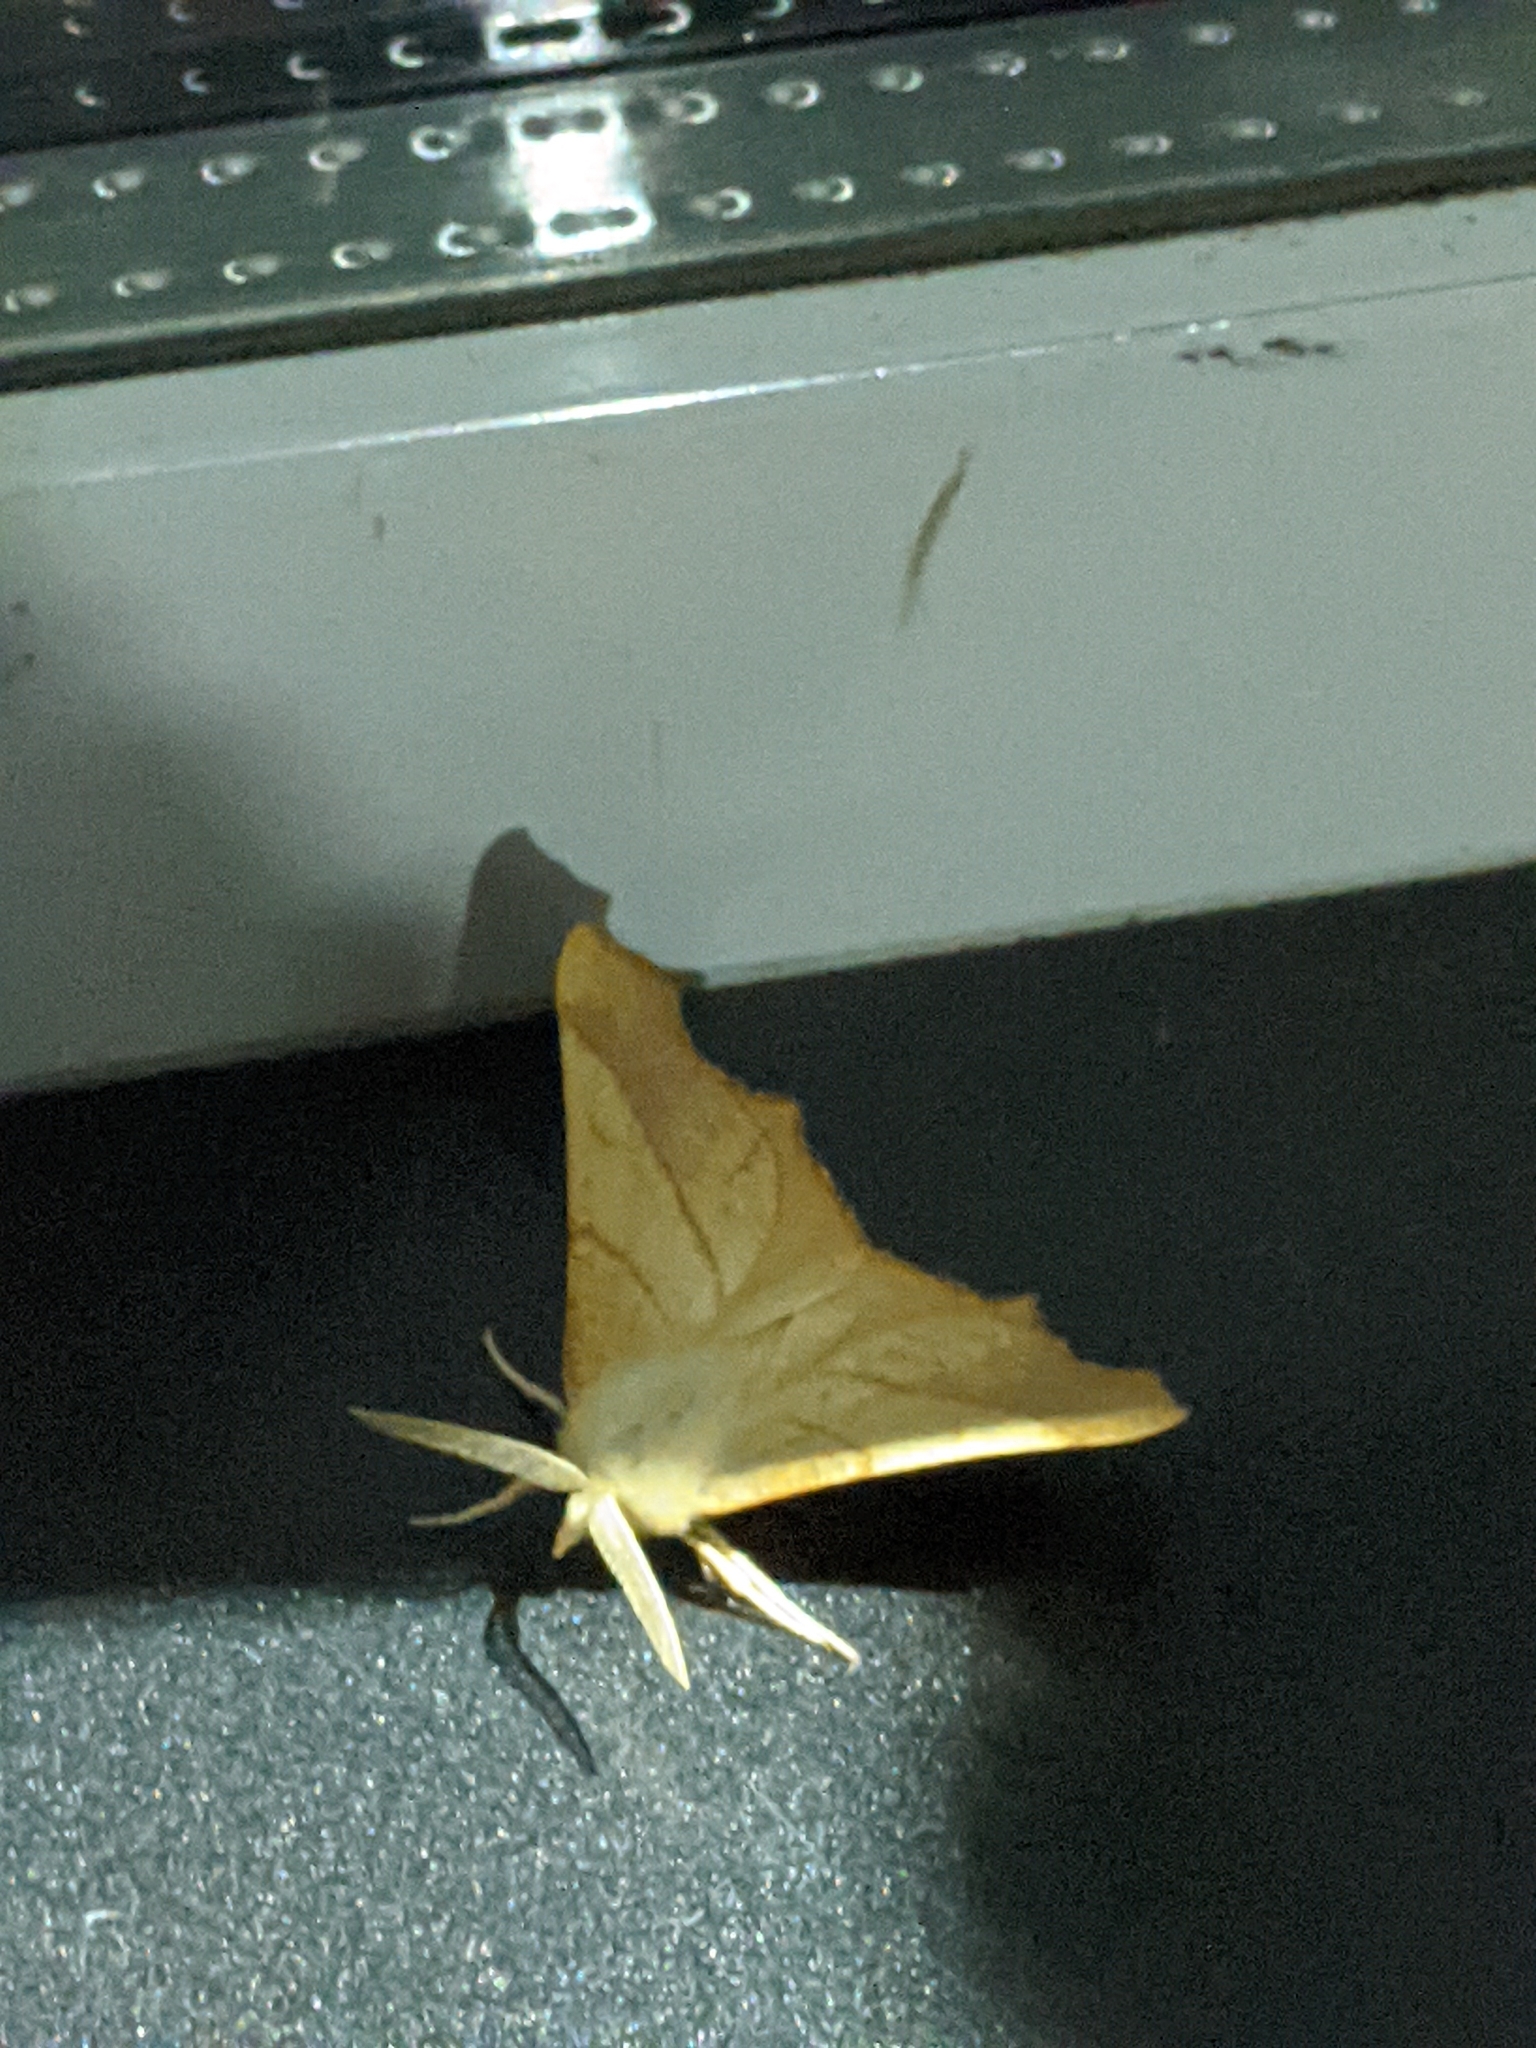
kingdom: Animalia
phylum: Arthropoda
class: Insecta
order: Lepidoptera
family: Geometridae
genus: Ennomos
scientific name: Ennomos fuscantaria
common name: Dusky thorn
